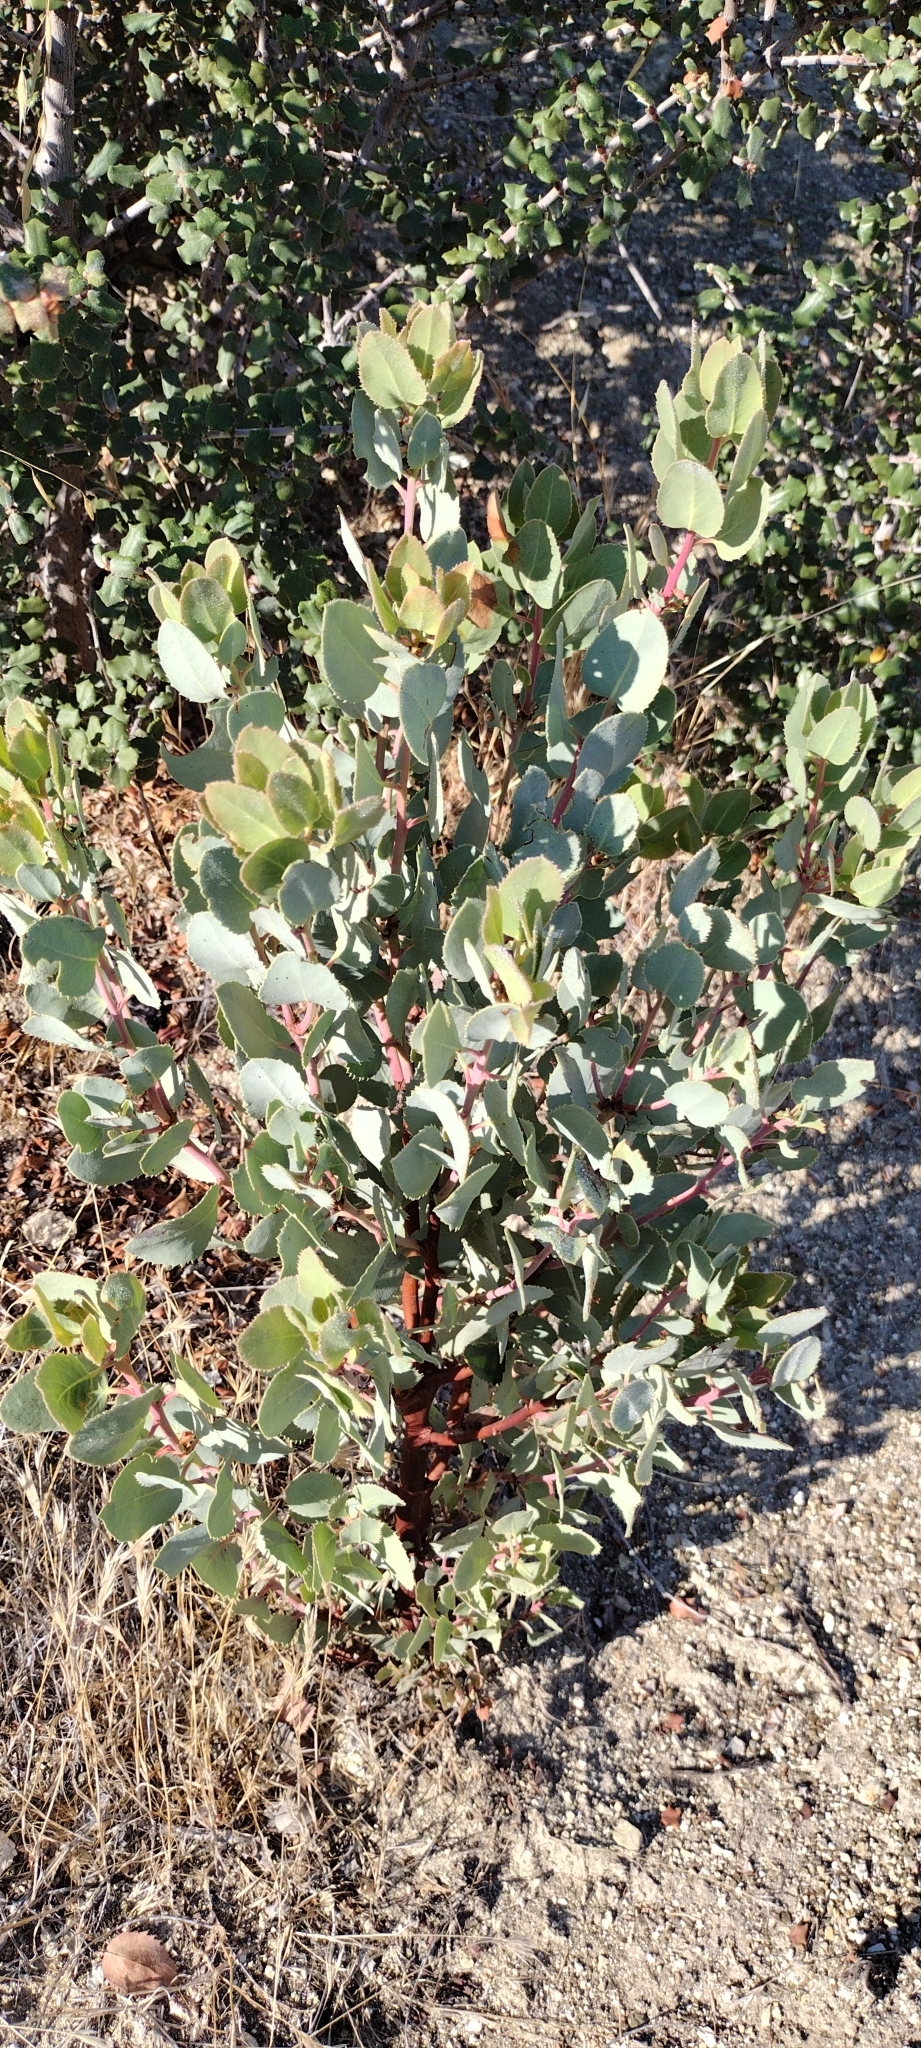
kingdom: Plantae
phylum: Tracheophyta
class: Magnoliopsida
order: Ericales
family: Ericaceae
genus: Arctostaphylos
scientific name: Arctostaphylos glauca
